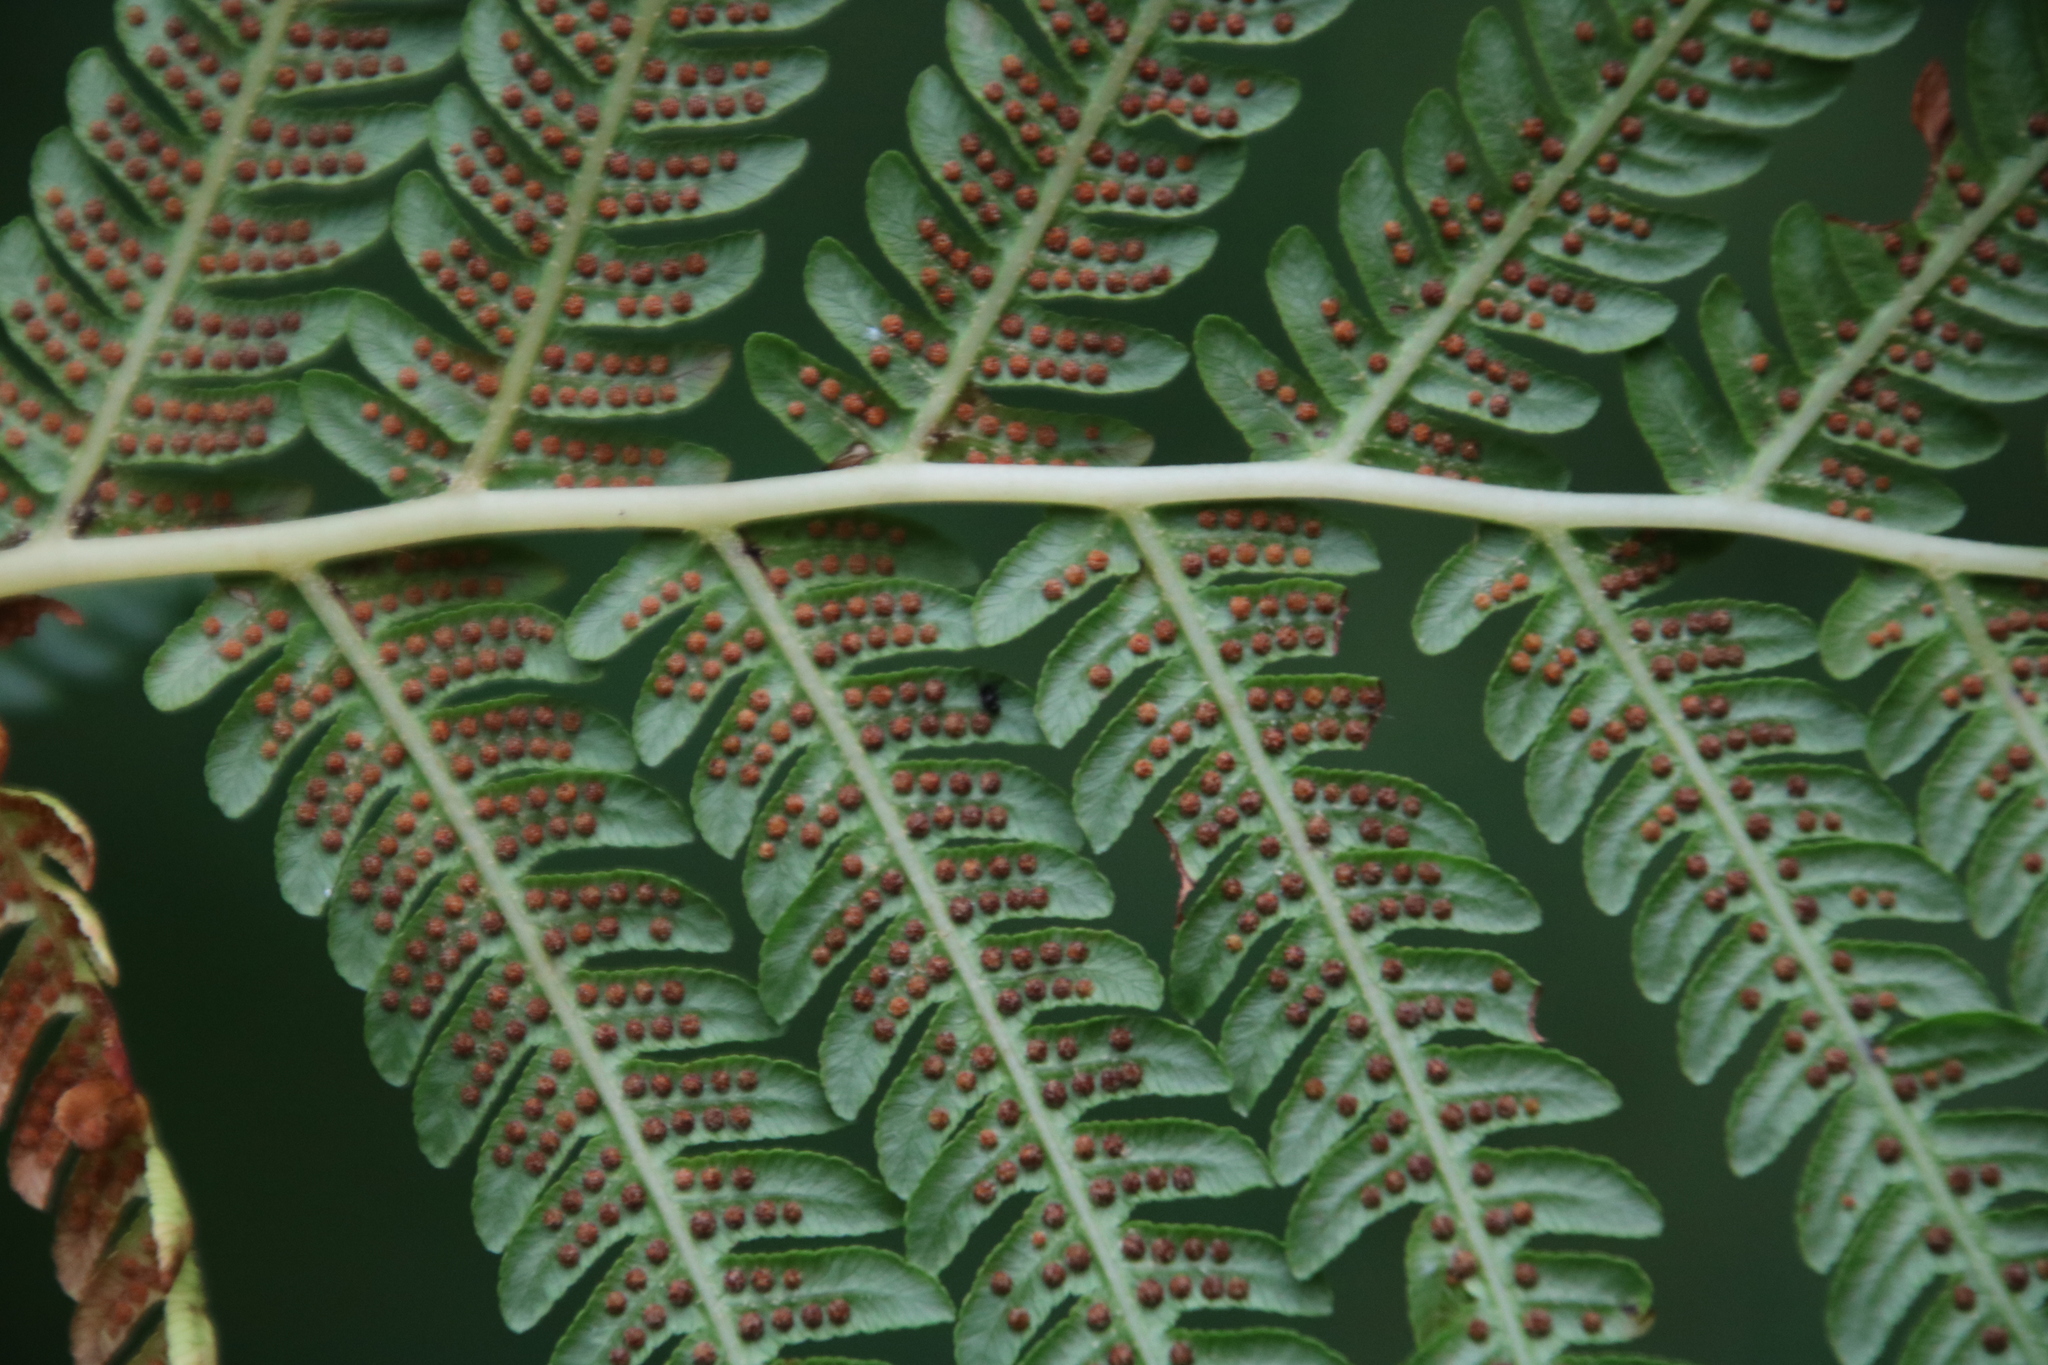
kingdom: Plantae
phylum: Tracheophyta
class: Polypodiopsida
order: Cyatheales
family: Cyatheaceae
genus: Sphaeropteris
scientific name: Sphaeropteris cooperi
